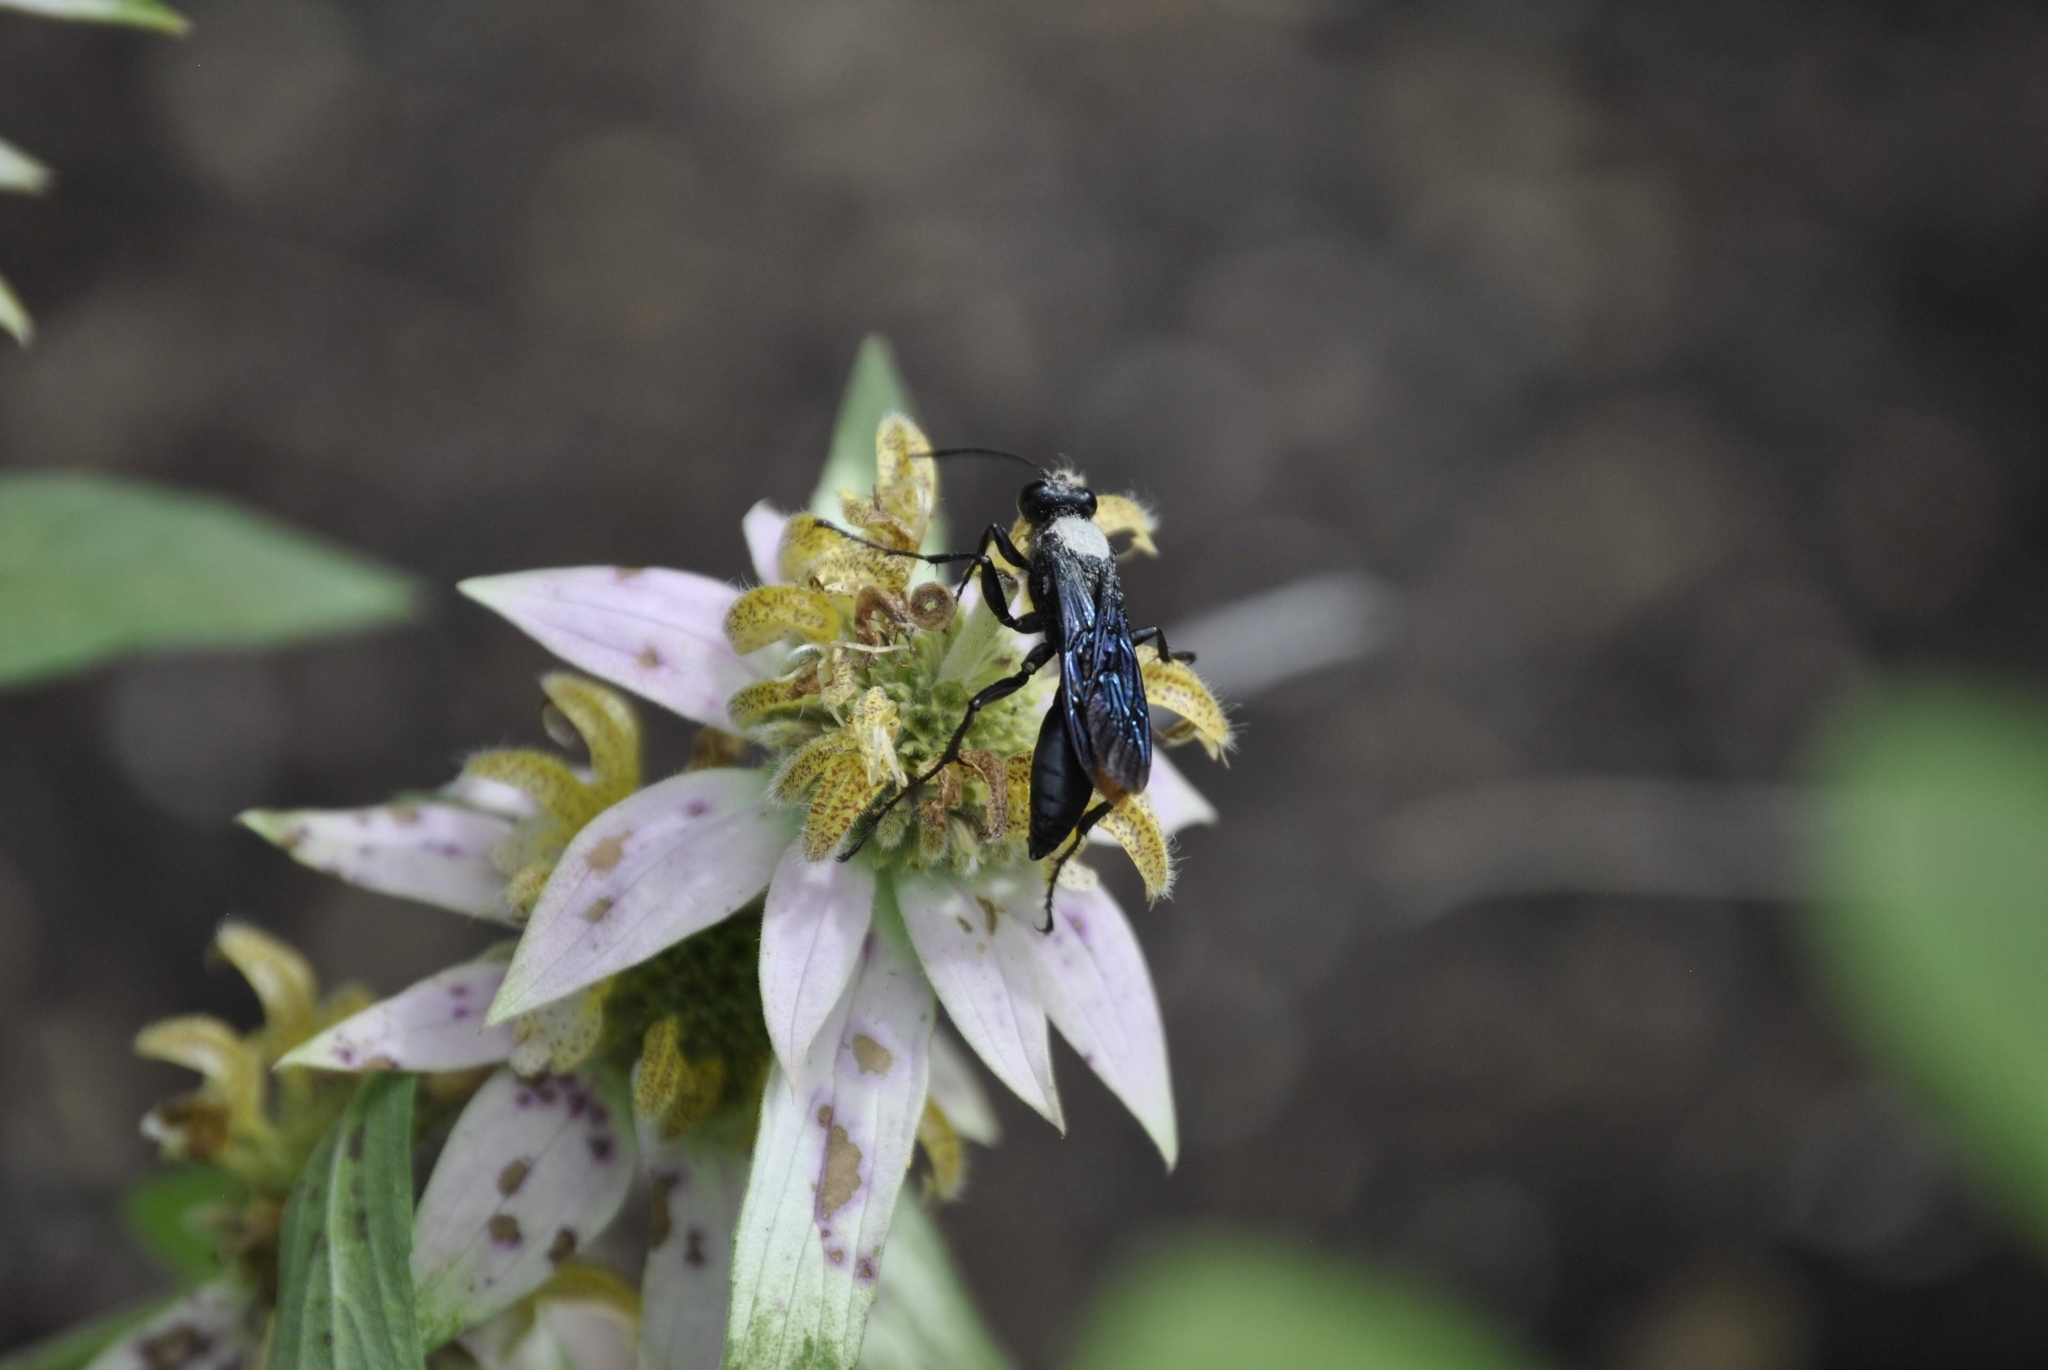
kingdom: Animalia
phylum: Arthropoda
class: Insecta
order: Hymenoptera
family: Sphecidae
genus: Sphex
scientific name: Sphex pensylvanicus
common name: Great black digger wasp
